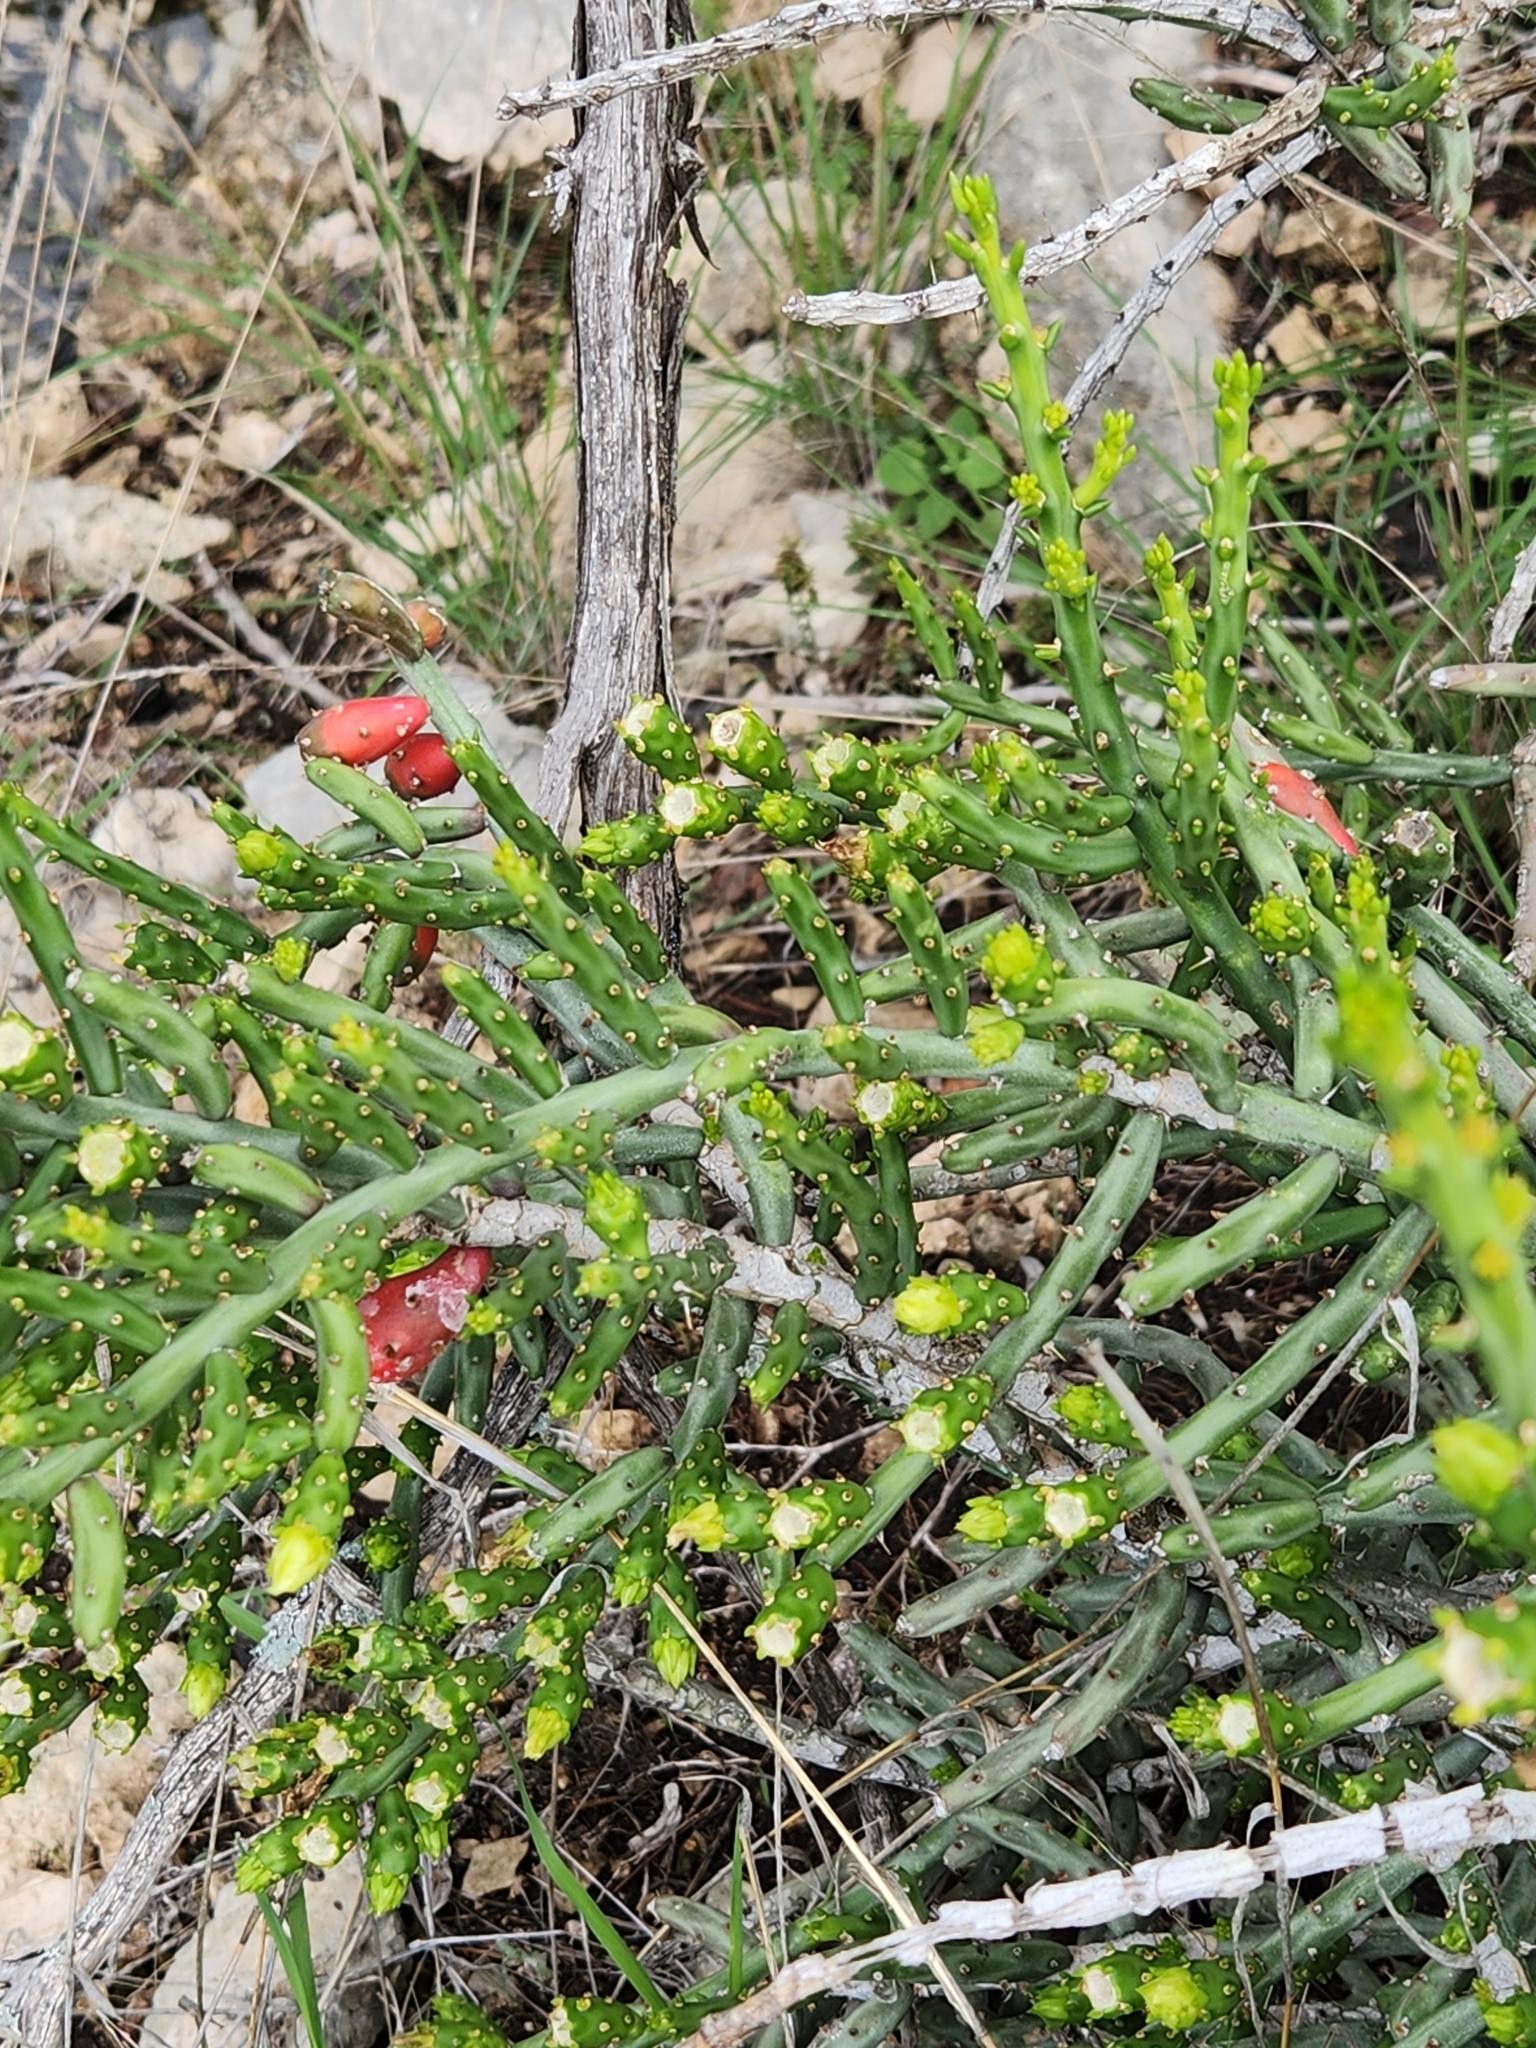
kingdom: Plantae
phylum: Tracheophyta
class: Magnoliopsida
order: Caryophyllales
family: Cactaceae
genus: Cylindropuntia
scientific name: Cylindropuntia leptocaulis
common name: Christmas cactus
